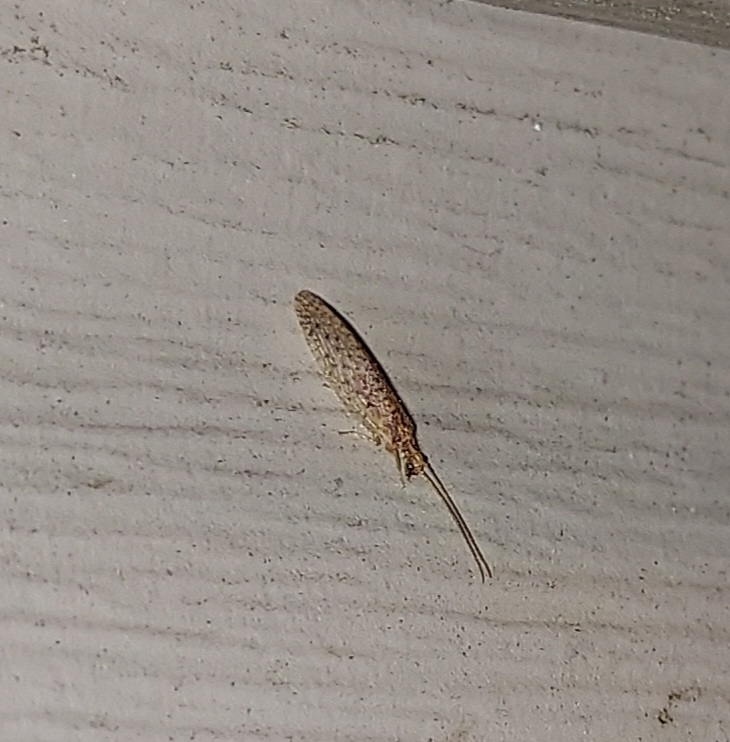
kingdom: Animalia
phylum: Arthropoda
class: Insecta
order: Neuroptera
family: Hemerobiidae
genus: Micromus
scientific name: Micromus subanticus
